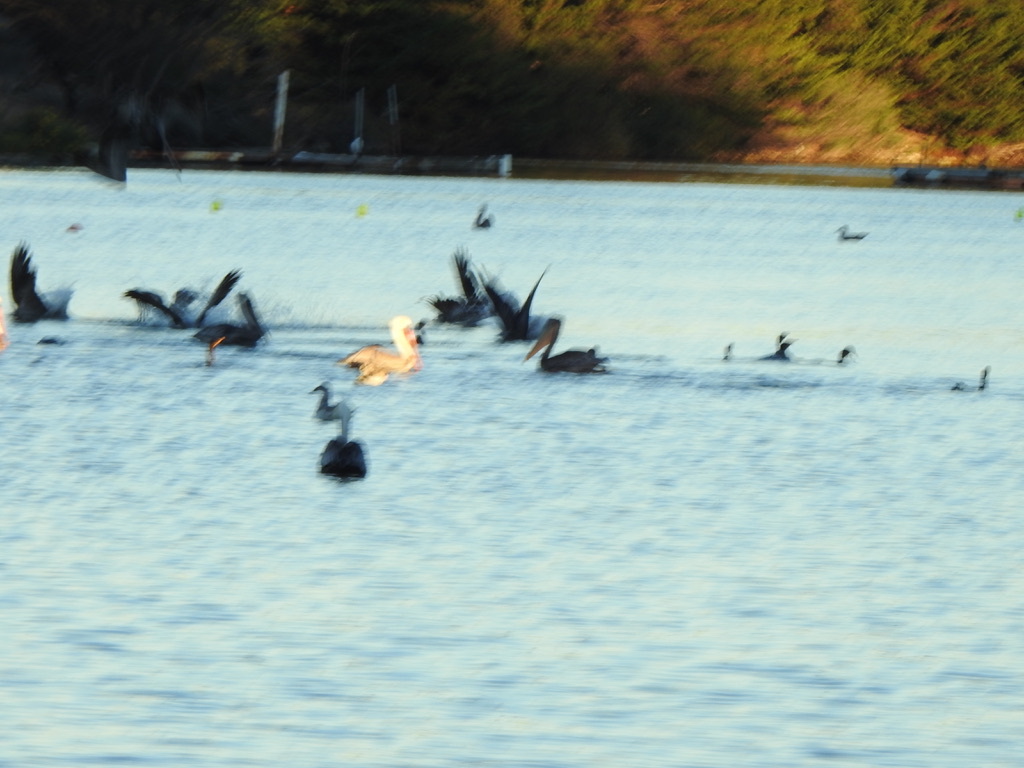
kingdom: Animalia
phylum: Chordata
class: Aves
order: Pelecaniformes
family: Pelecanidae
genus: Pelecanus
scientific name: Pelecanus occidentalis
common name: Brown pelican
